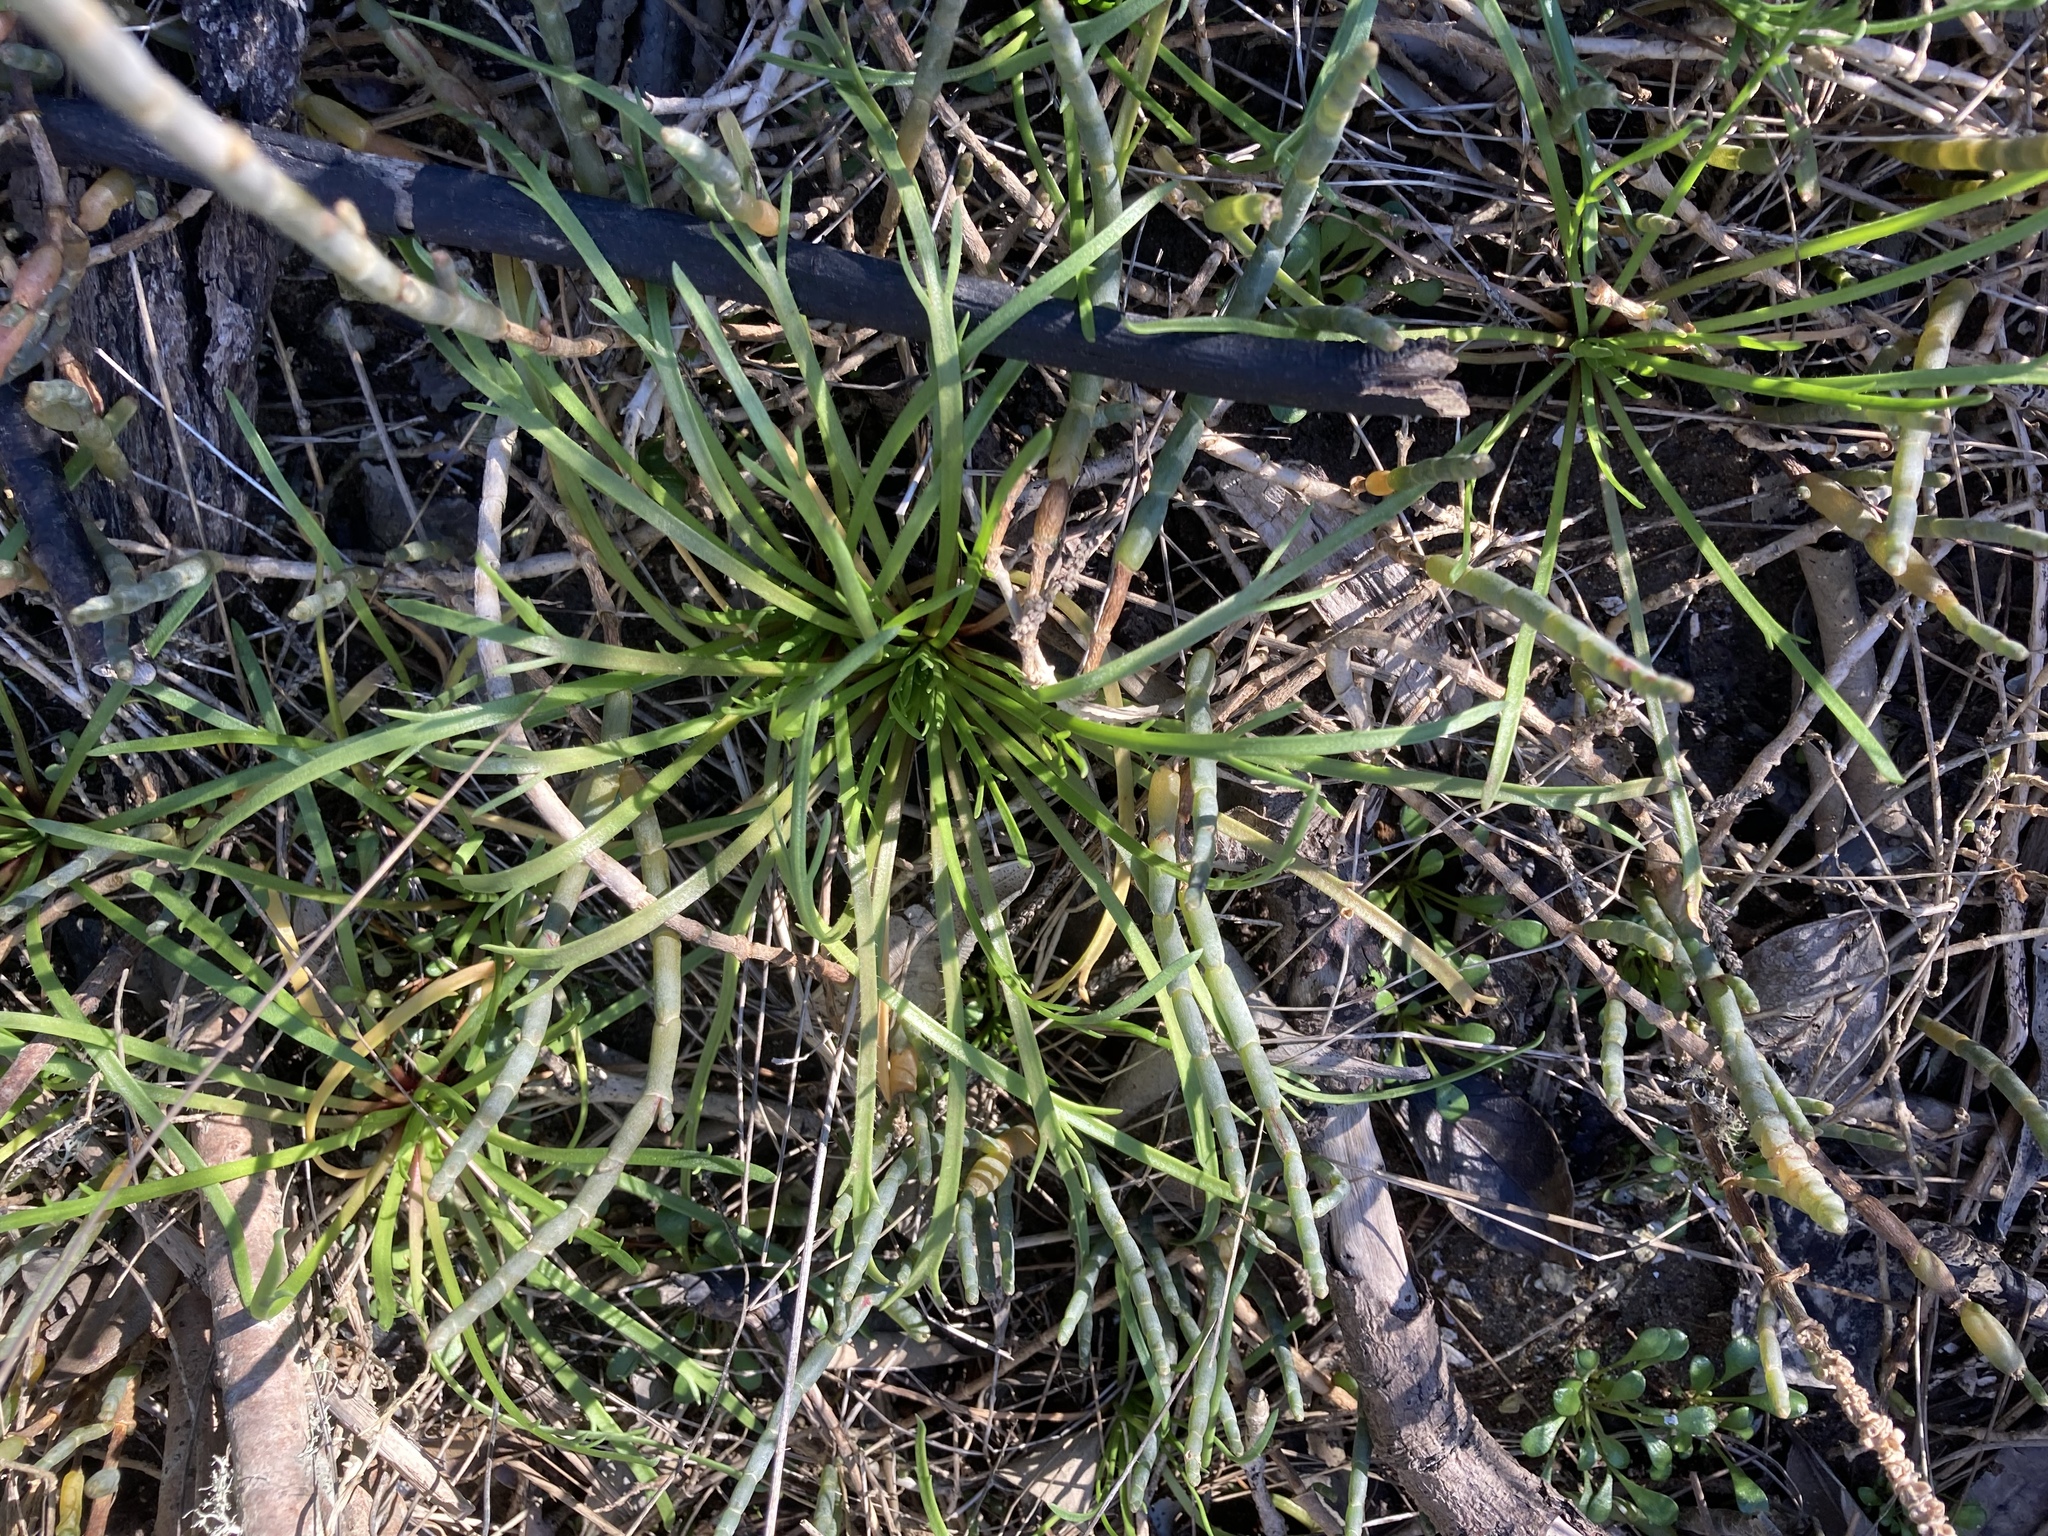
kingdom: Plantae
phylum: Tracheophyta
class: Magnoliopsida
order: Lamiales
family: Plantaginaceae
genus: Plantago
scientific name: Plantago coronopus
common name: Buck's-horn plantain
